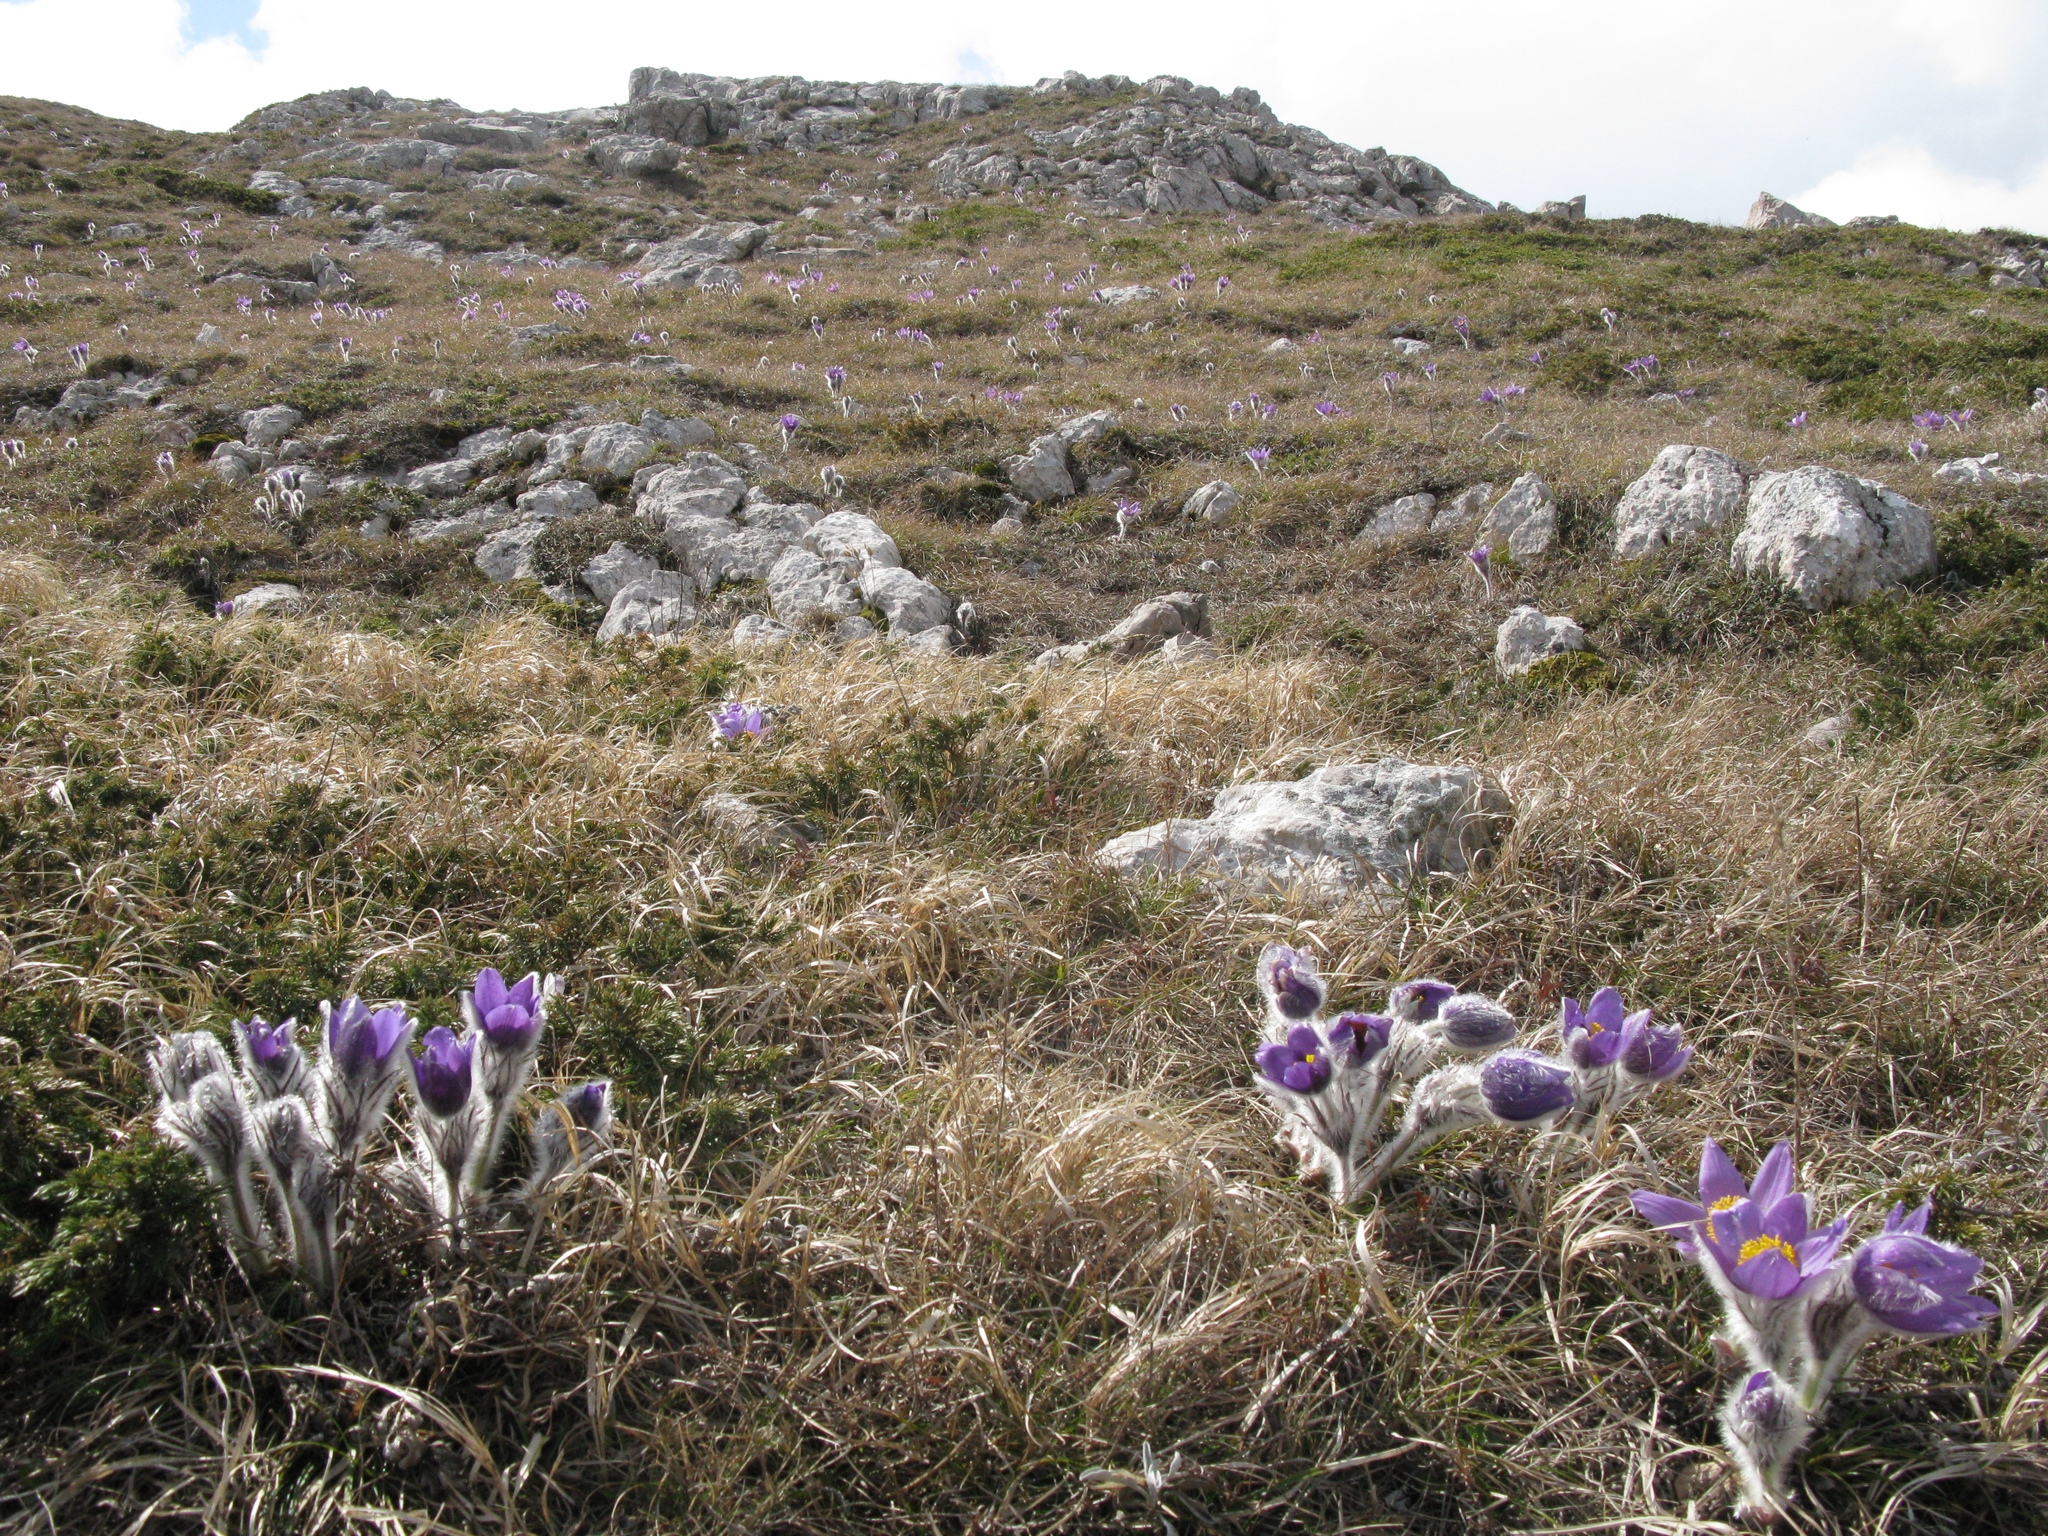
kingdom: Plantae
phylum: Tracheophyta
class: Magnoliopsida
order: Ranunculales
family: Ranunculaceae
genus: Pulsatilla
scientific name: Pulsatilla halleri
